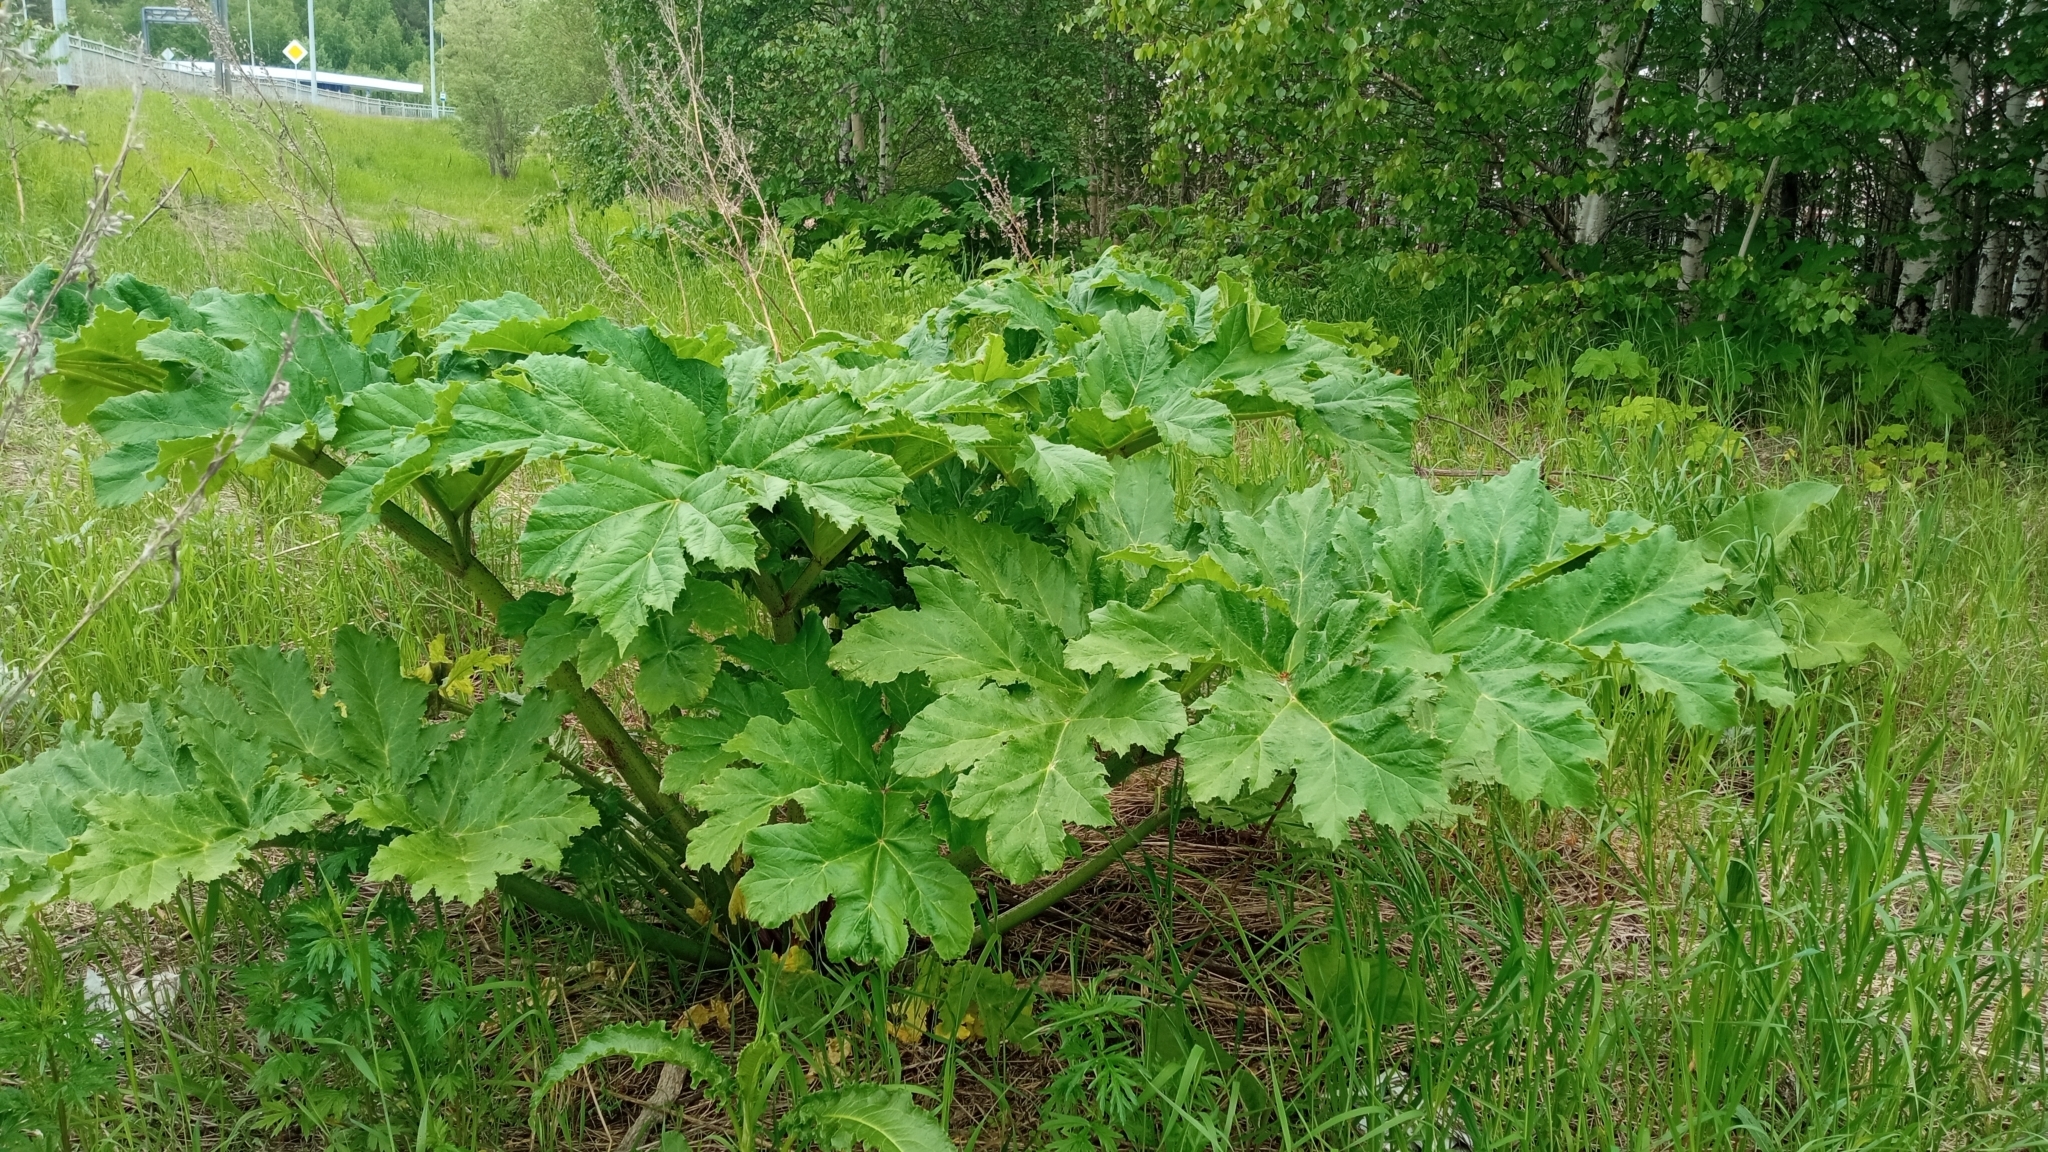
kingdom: Plantae
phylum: Tracheophyta
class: Magnoliopsida
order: Apiales
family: Apiaceae
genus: Heracleum
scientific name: Heracleum sosnowskyi
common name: Sosnowsky's hogweed
